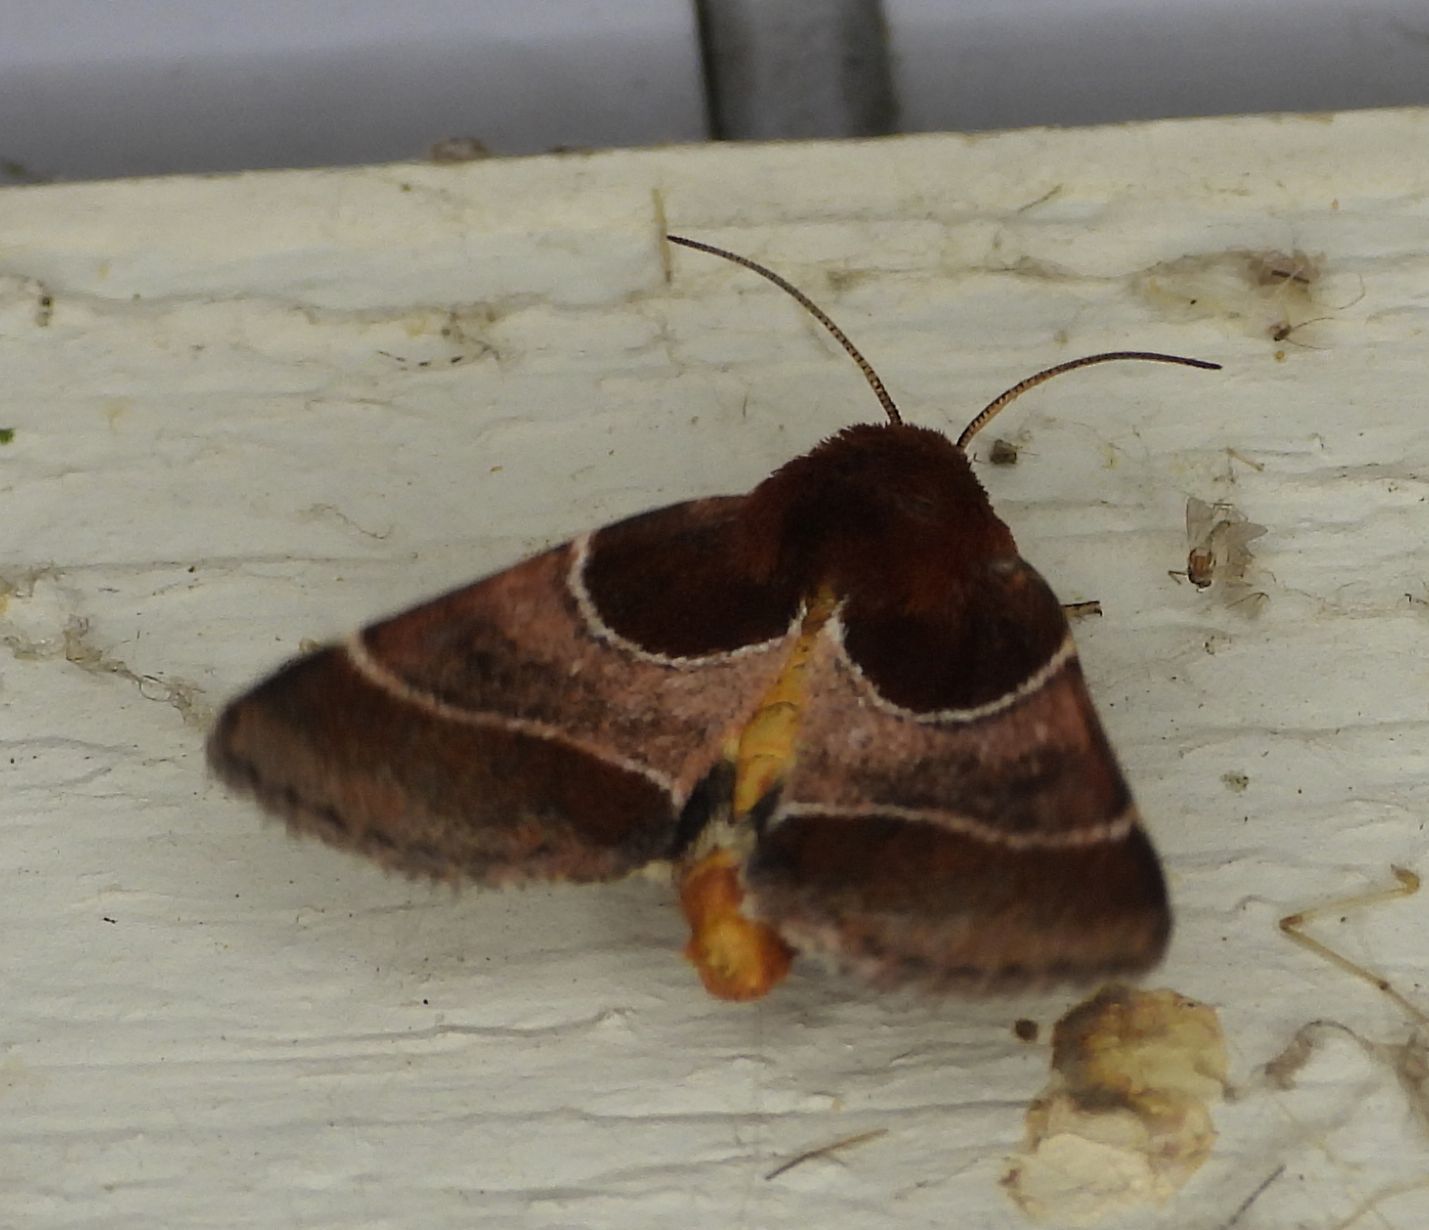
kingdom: Animalia
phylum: Arthropoda
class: Insecta
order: Lepidoptera
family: Noctuidae
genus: Schinia
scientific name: Schinia arcigera
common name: Arcigera flower moth
